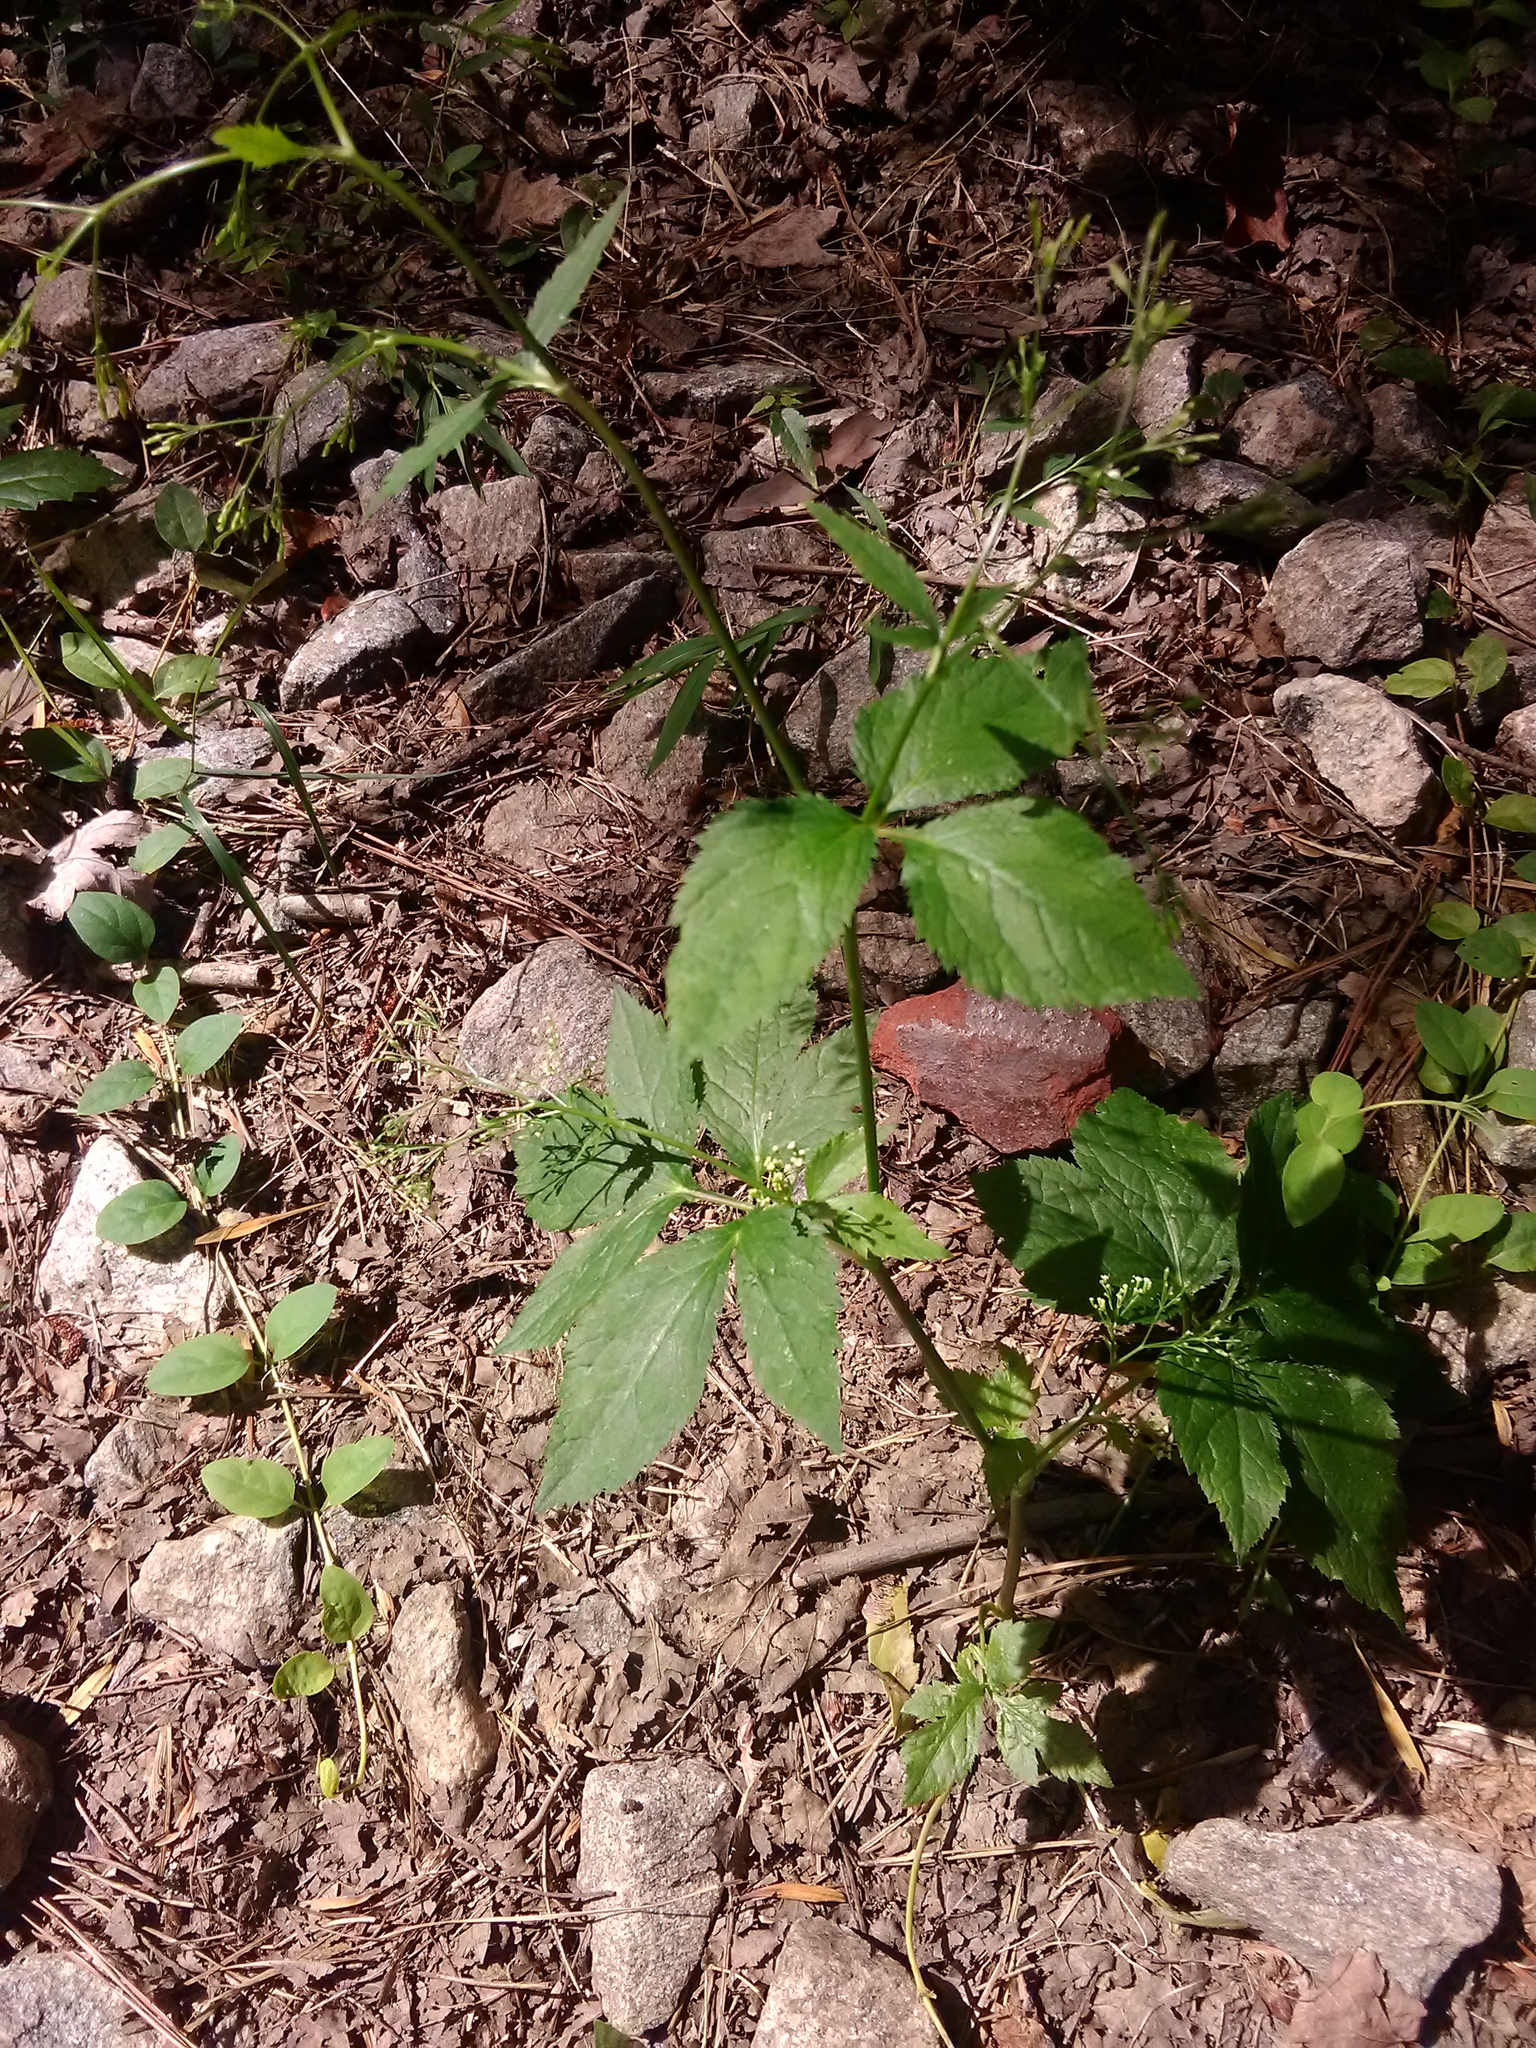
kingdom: Plantae
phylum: Tracheophyta
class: Magnoliopsida
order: Apiales
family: Apiaceae
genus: Cryptotaenia
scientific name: Cryptotaenia canadensis
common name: Honewort
